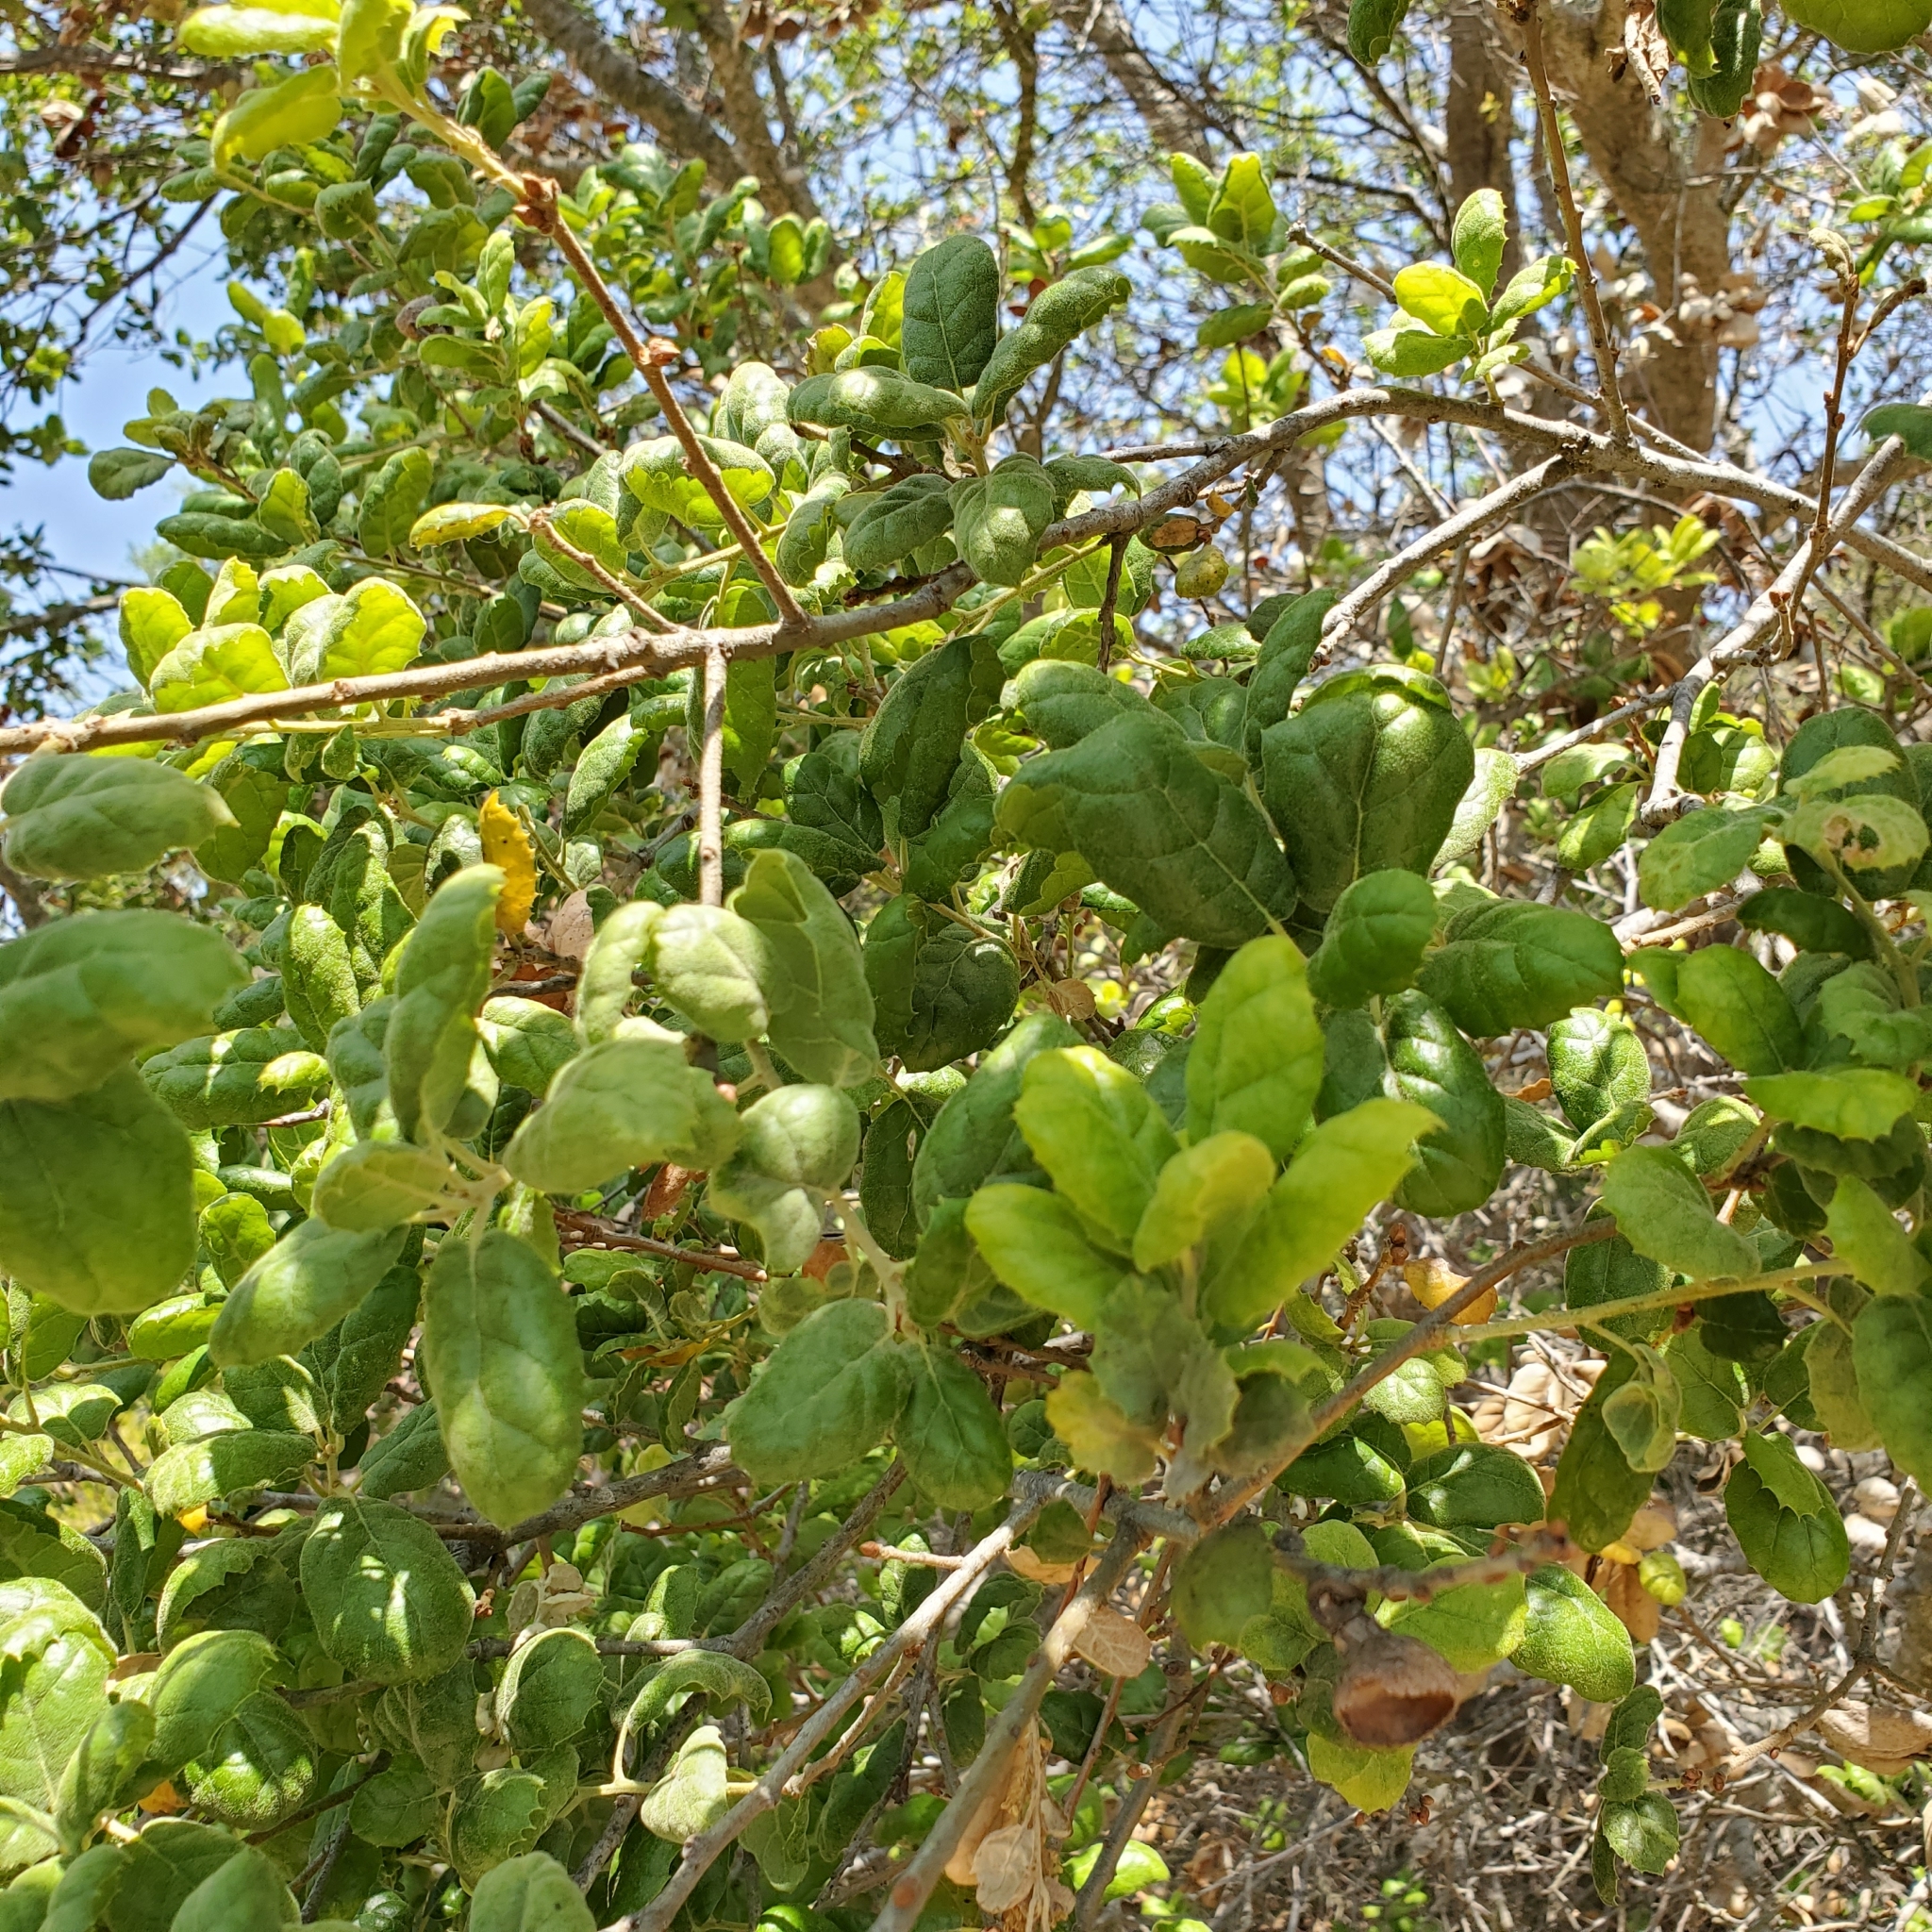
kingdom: Plantae
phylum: Tracheophyta
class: Magnoliopsida
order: Fagales
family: Fagaceae
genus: Quercus
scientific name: Quercus agrifolia
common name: California live oak
